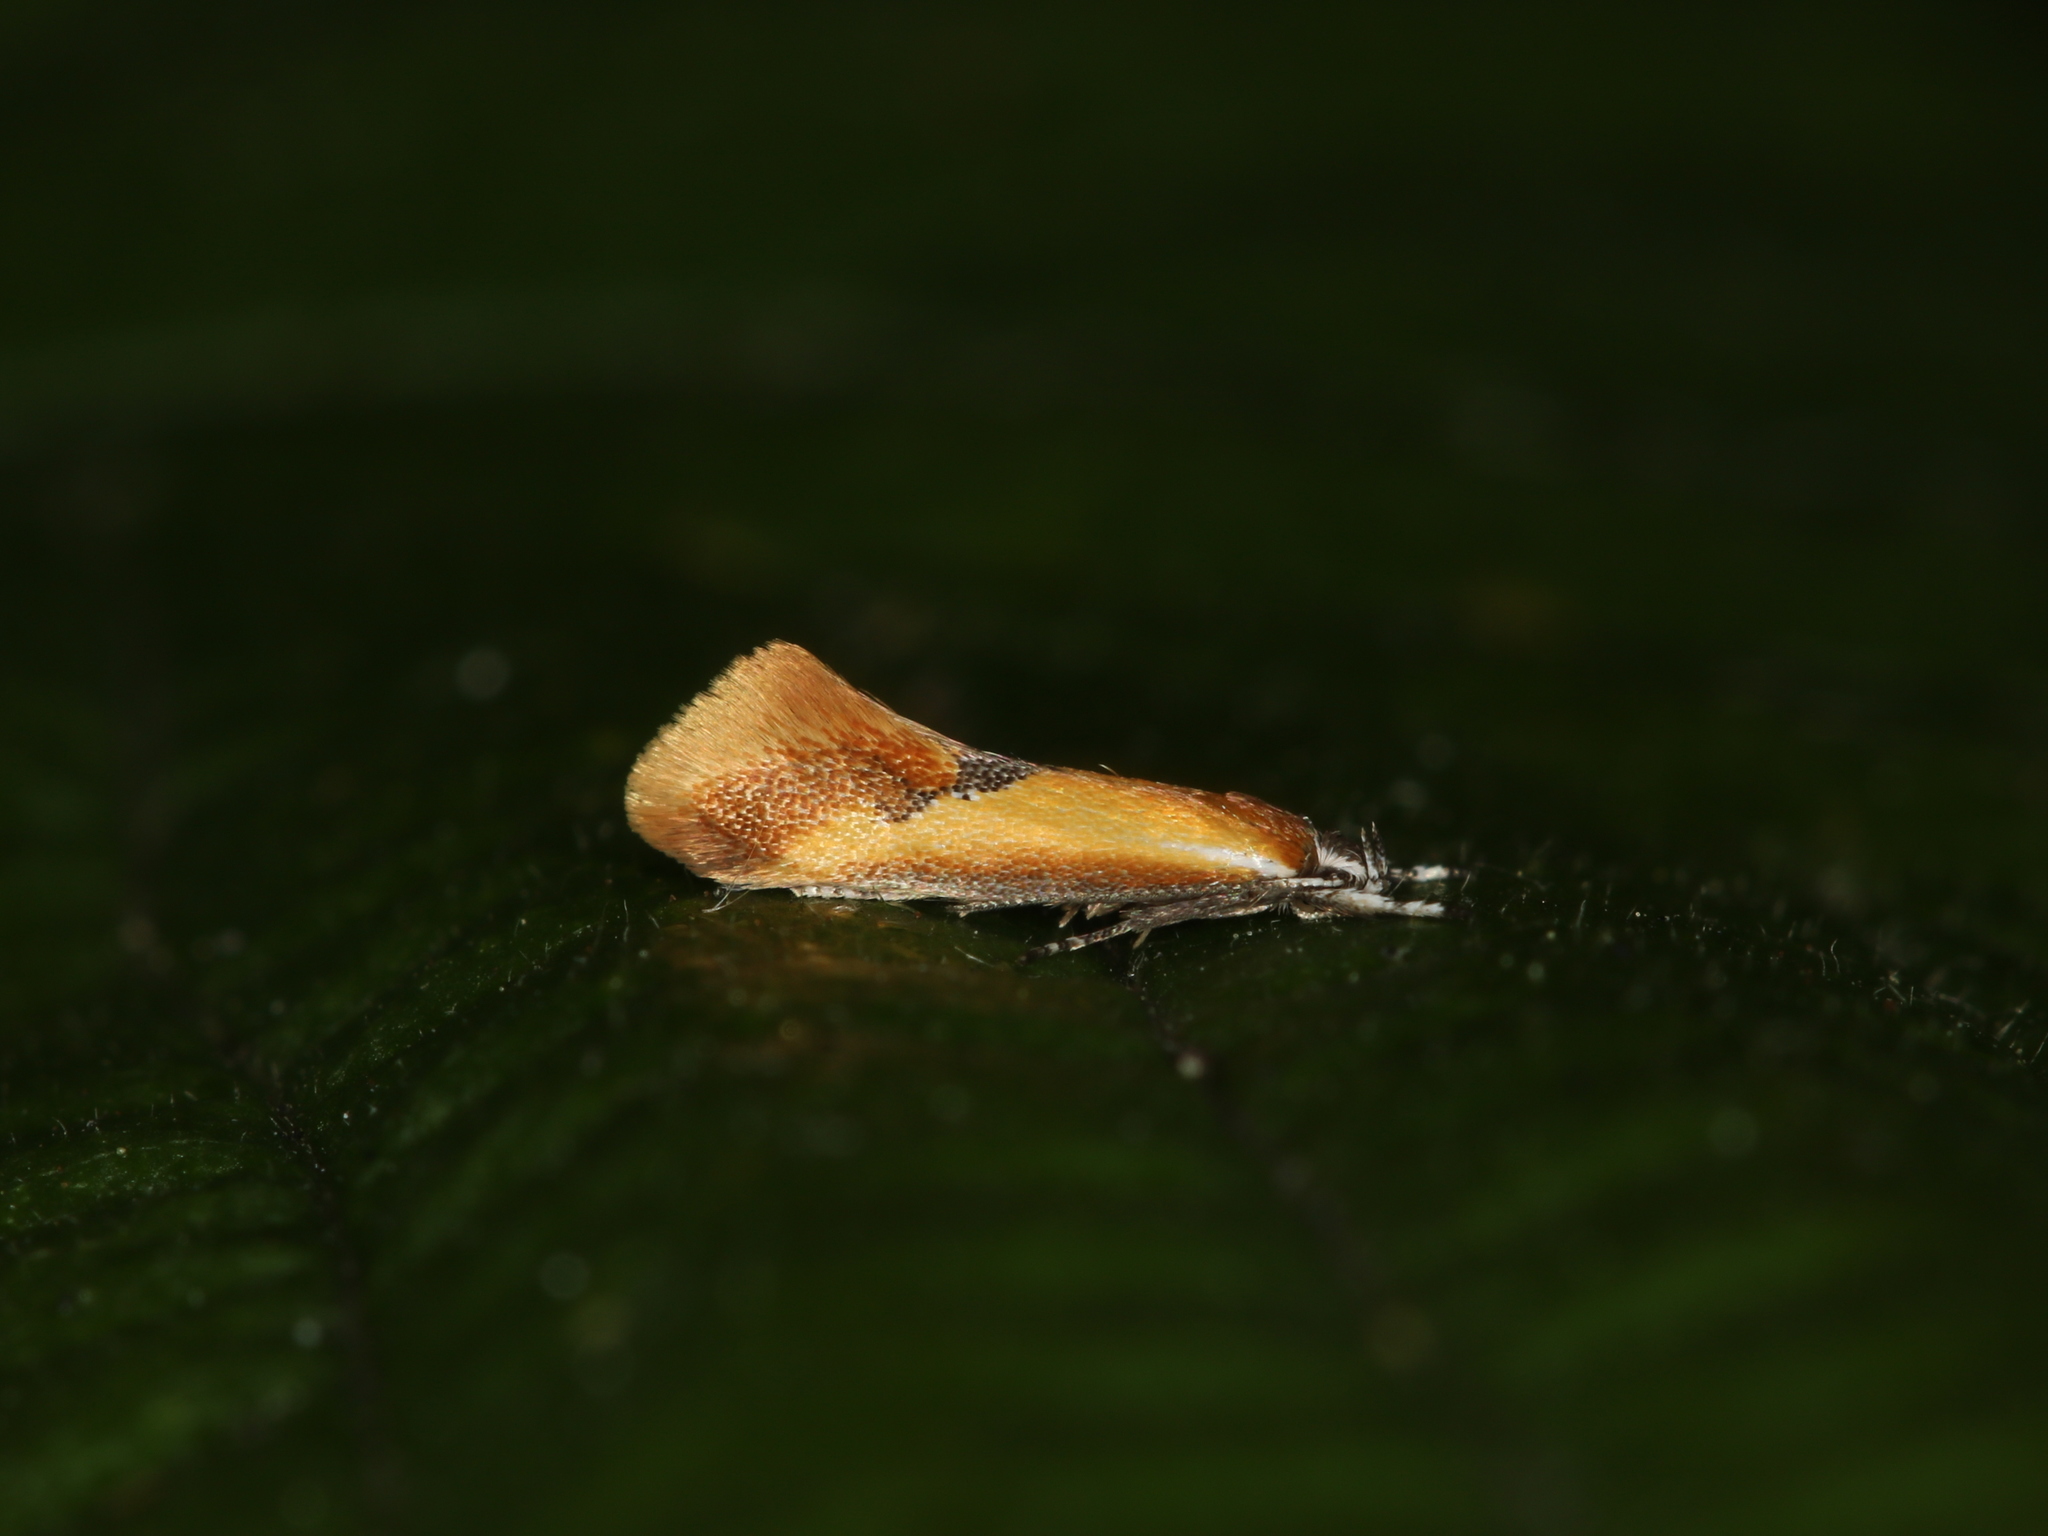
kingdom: Animalia
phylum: Arthropoda
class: Insecta
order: Lepidoptera
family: Oecophoridae
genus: Batia
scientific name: Batia lunaris
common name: Moth
